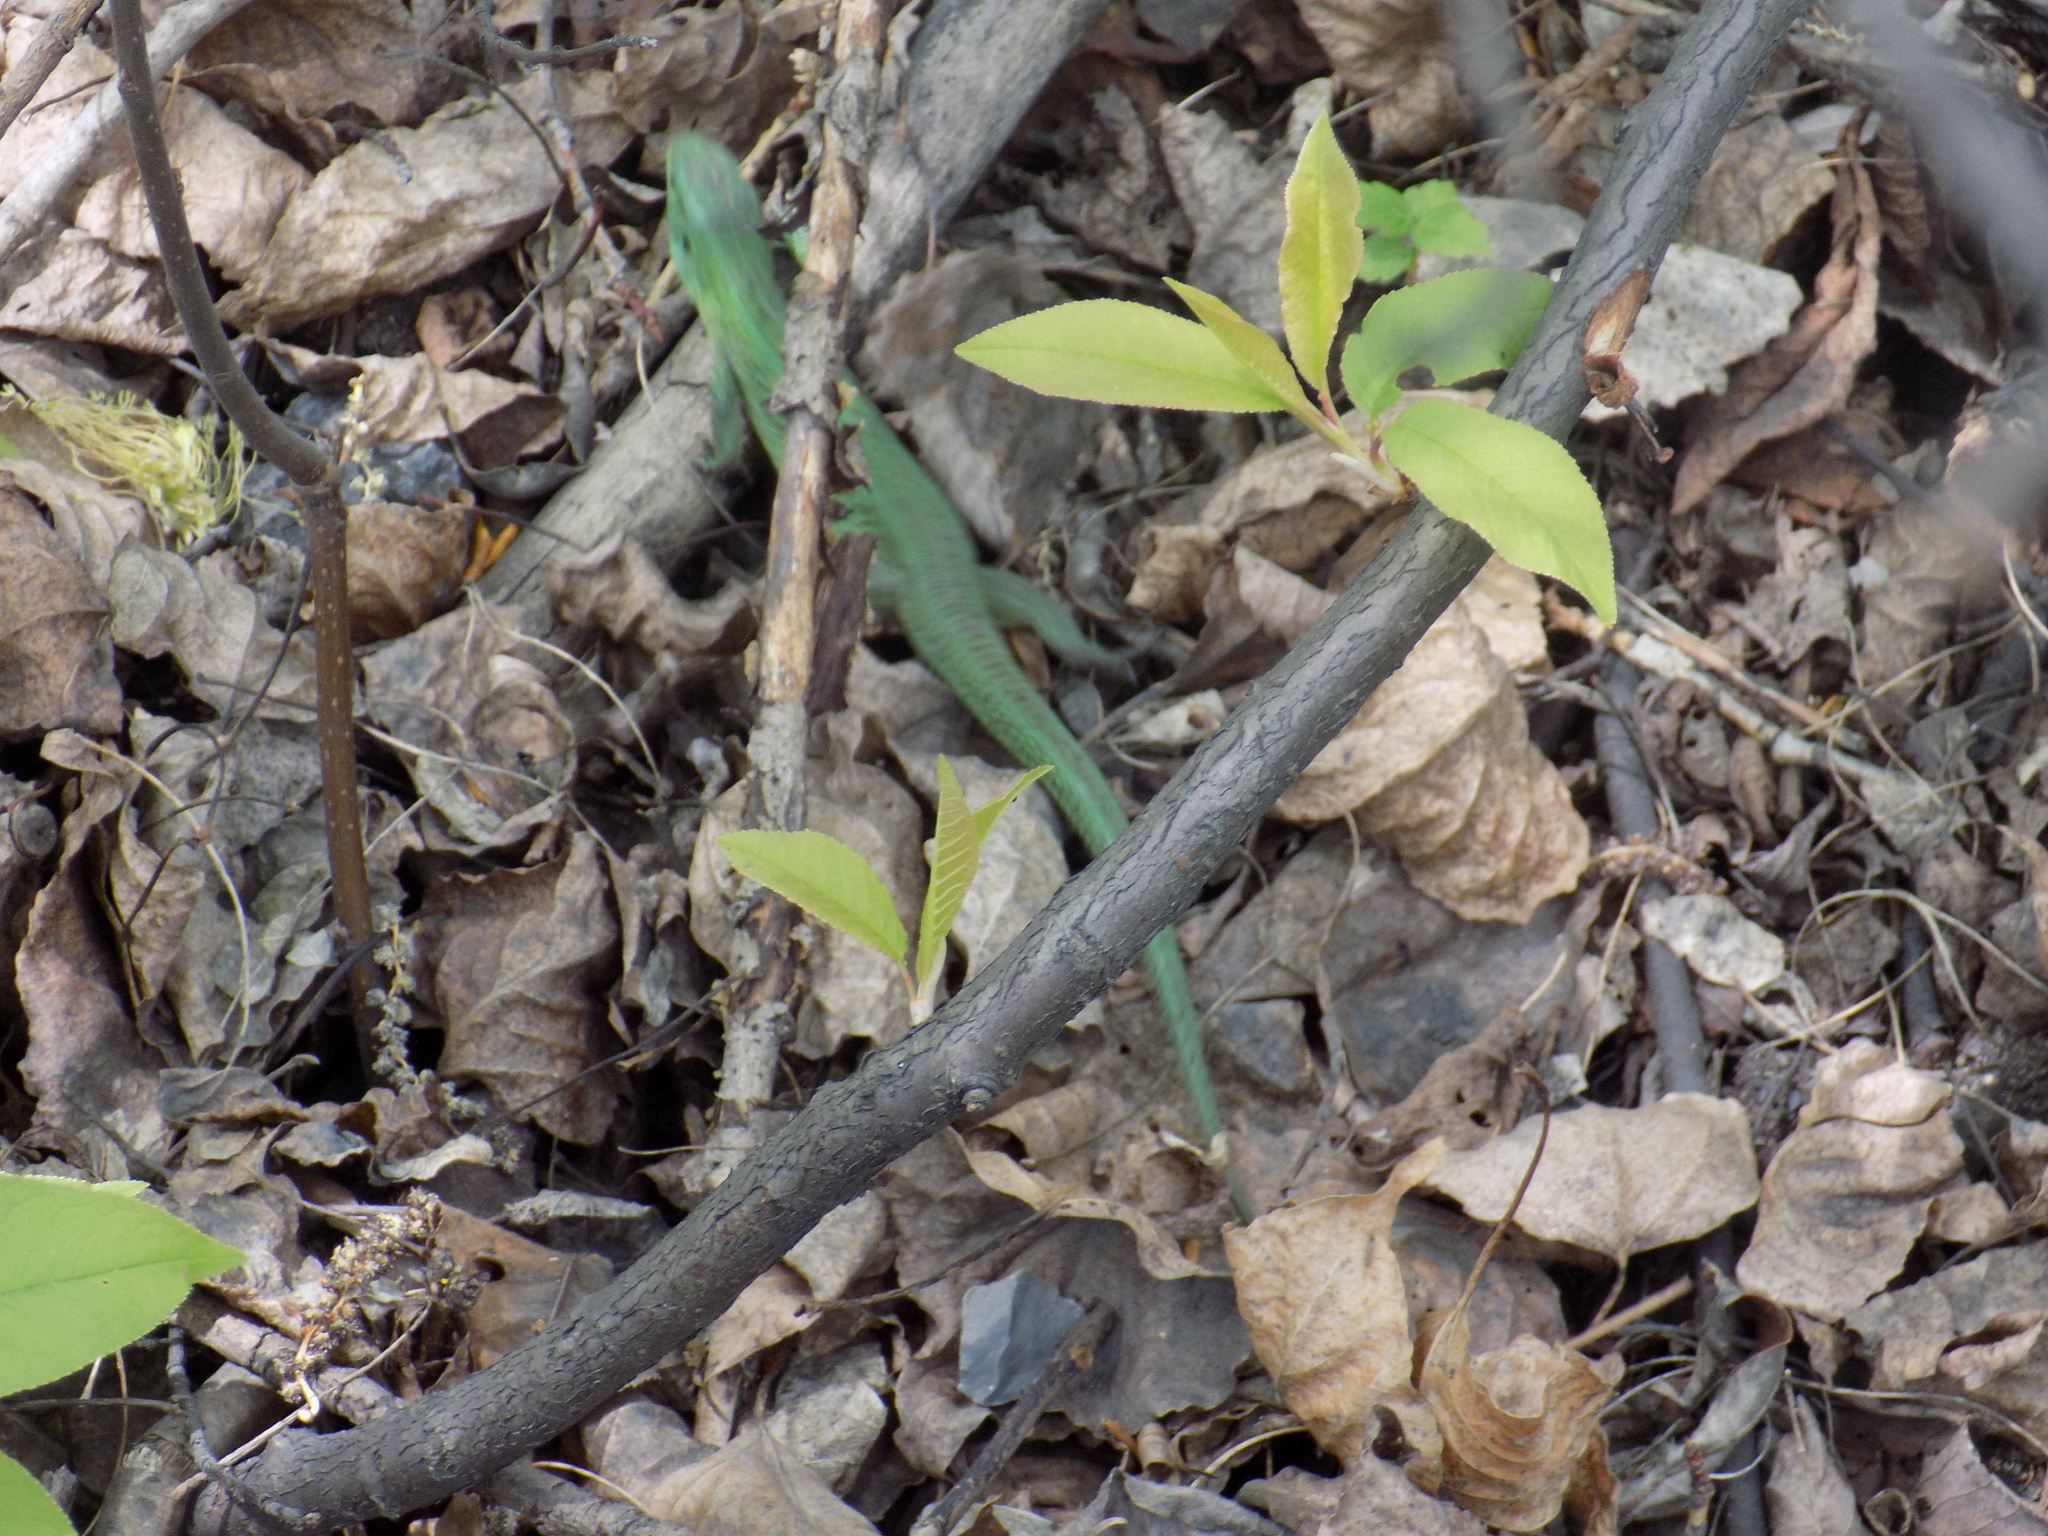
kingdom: Animalia
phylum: Chordata
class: Squamata
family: Lacertidae
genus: Lacerta
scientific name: Lacerta agilis
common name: Sand lizard
